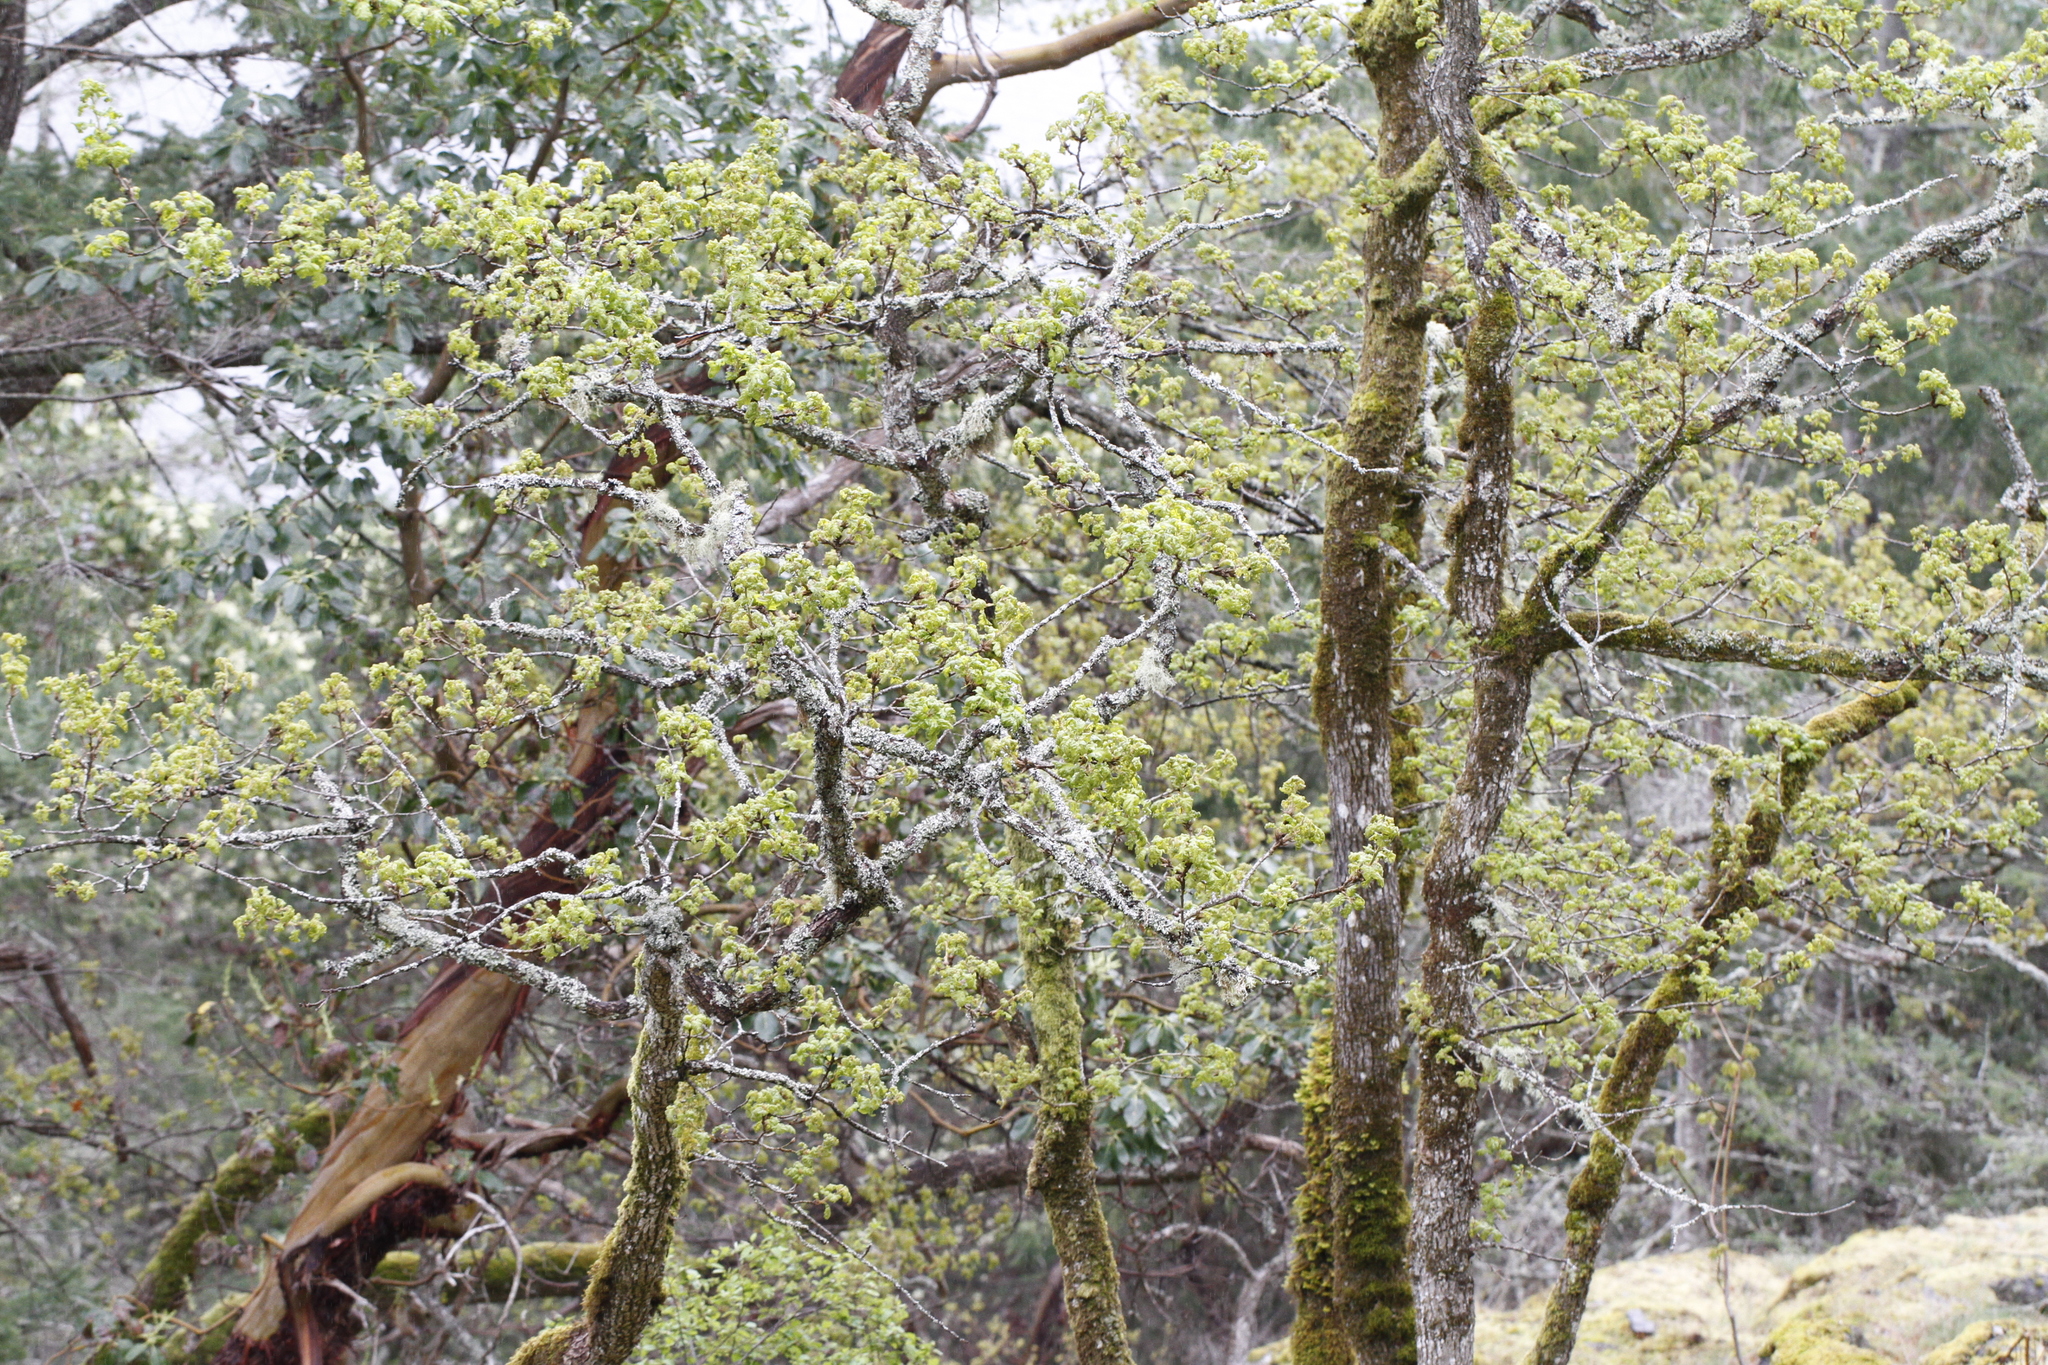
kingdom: Plantae
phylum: Tracheophyta
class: Magnoliopsida
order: Fagales
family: Fagaceae
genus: Quercus
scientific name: Quercus garryana
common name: Garry oak
